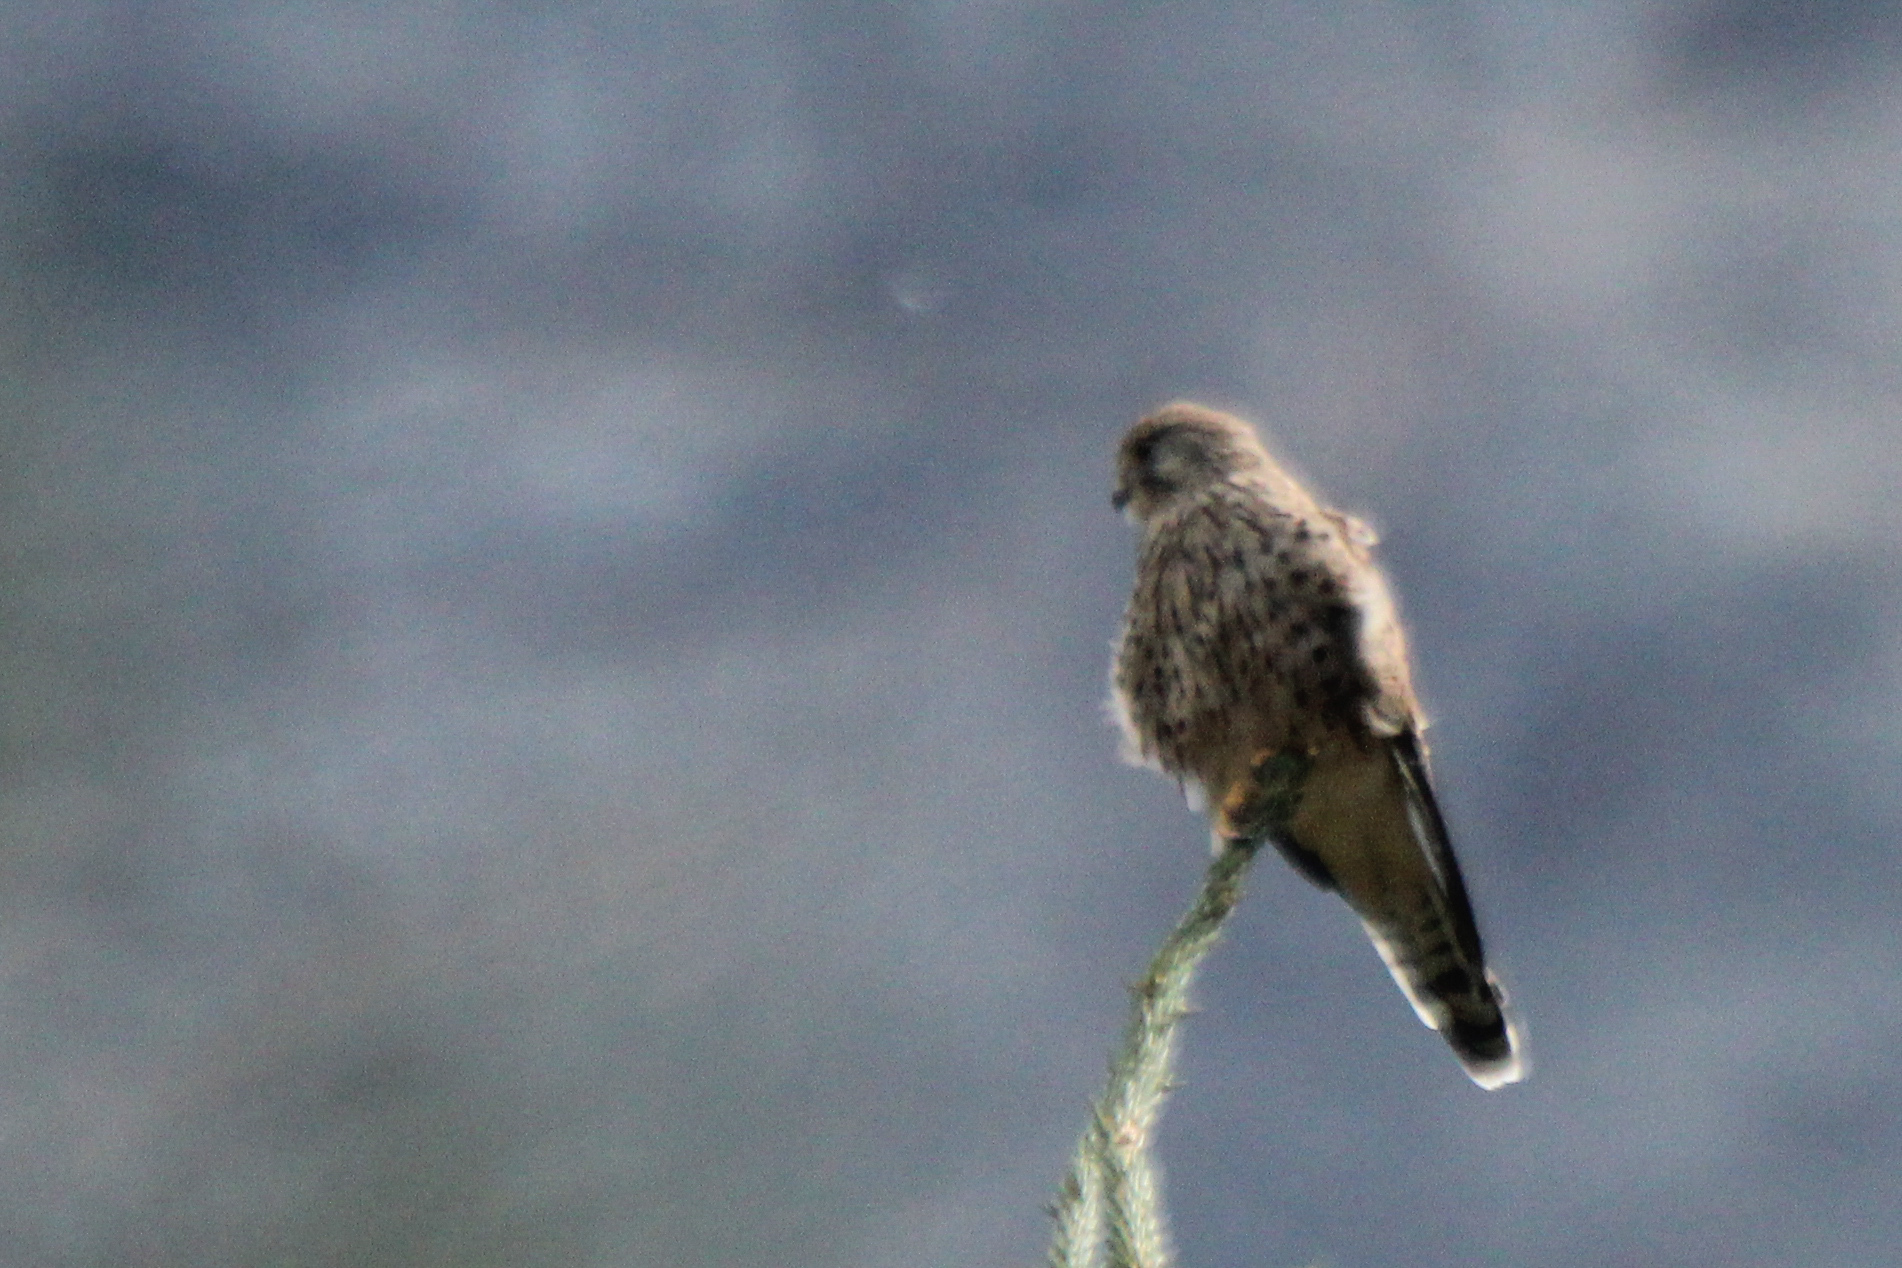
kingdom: Animalia
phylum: Chordata
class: Aves
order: Falconiformes
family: Falconidae
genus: Falco
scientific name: Falco tinnunculus
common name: Common kestrel
